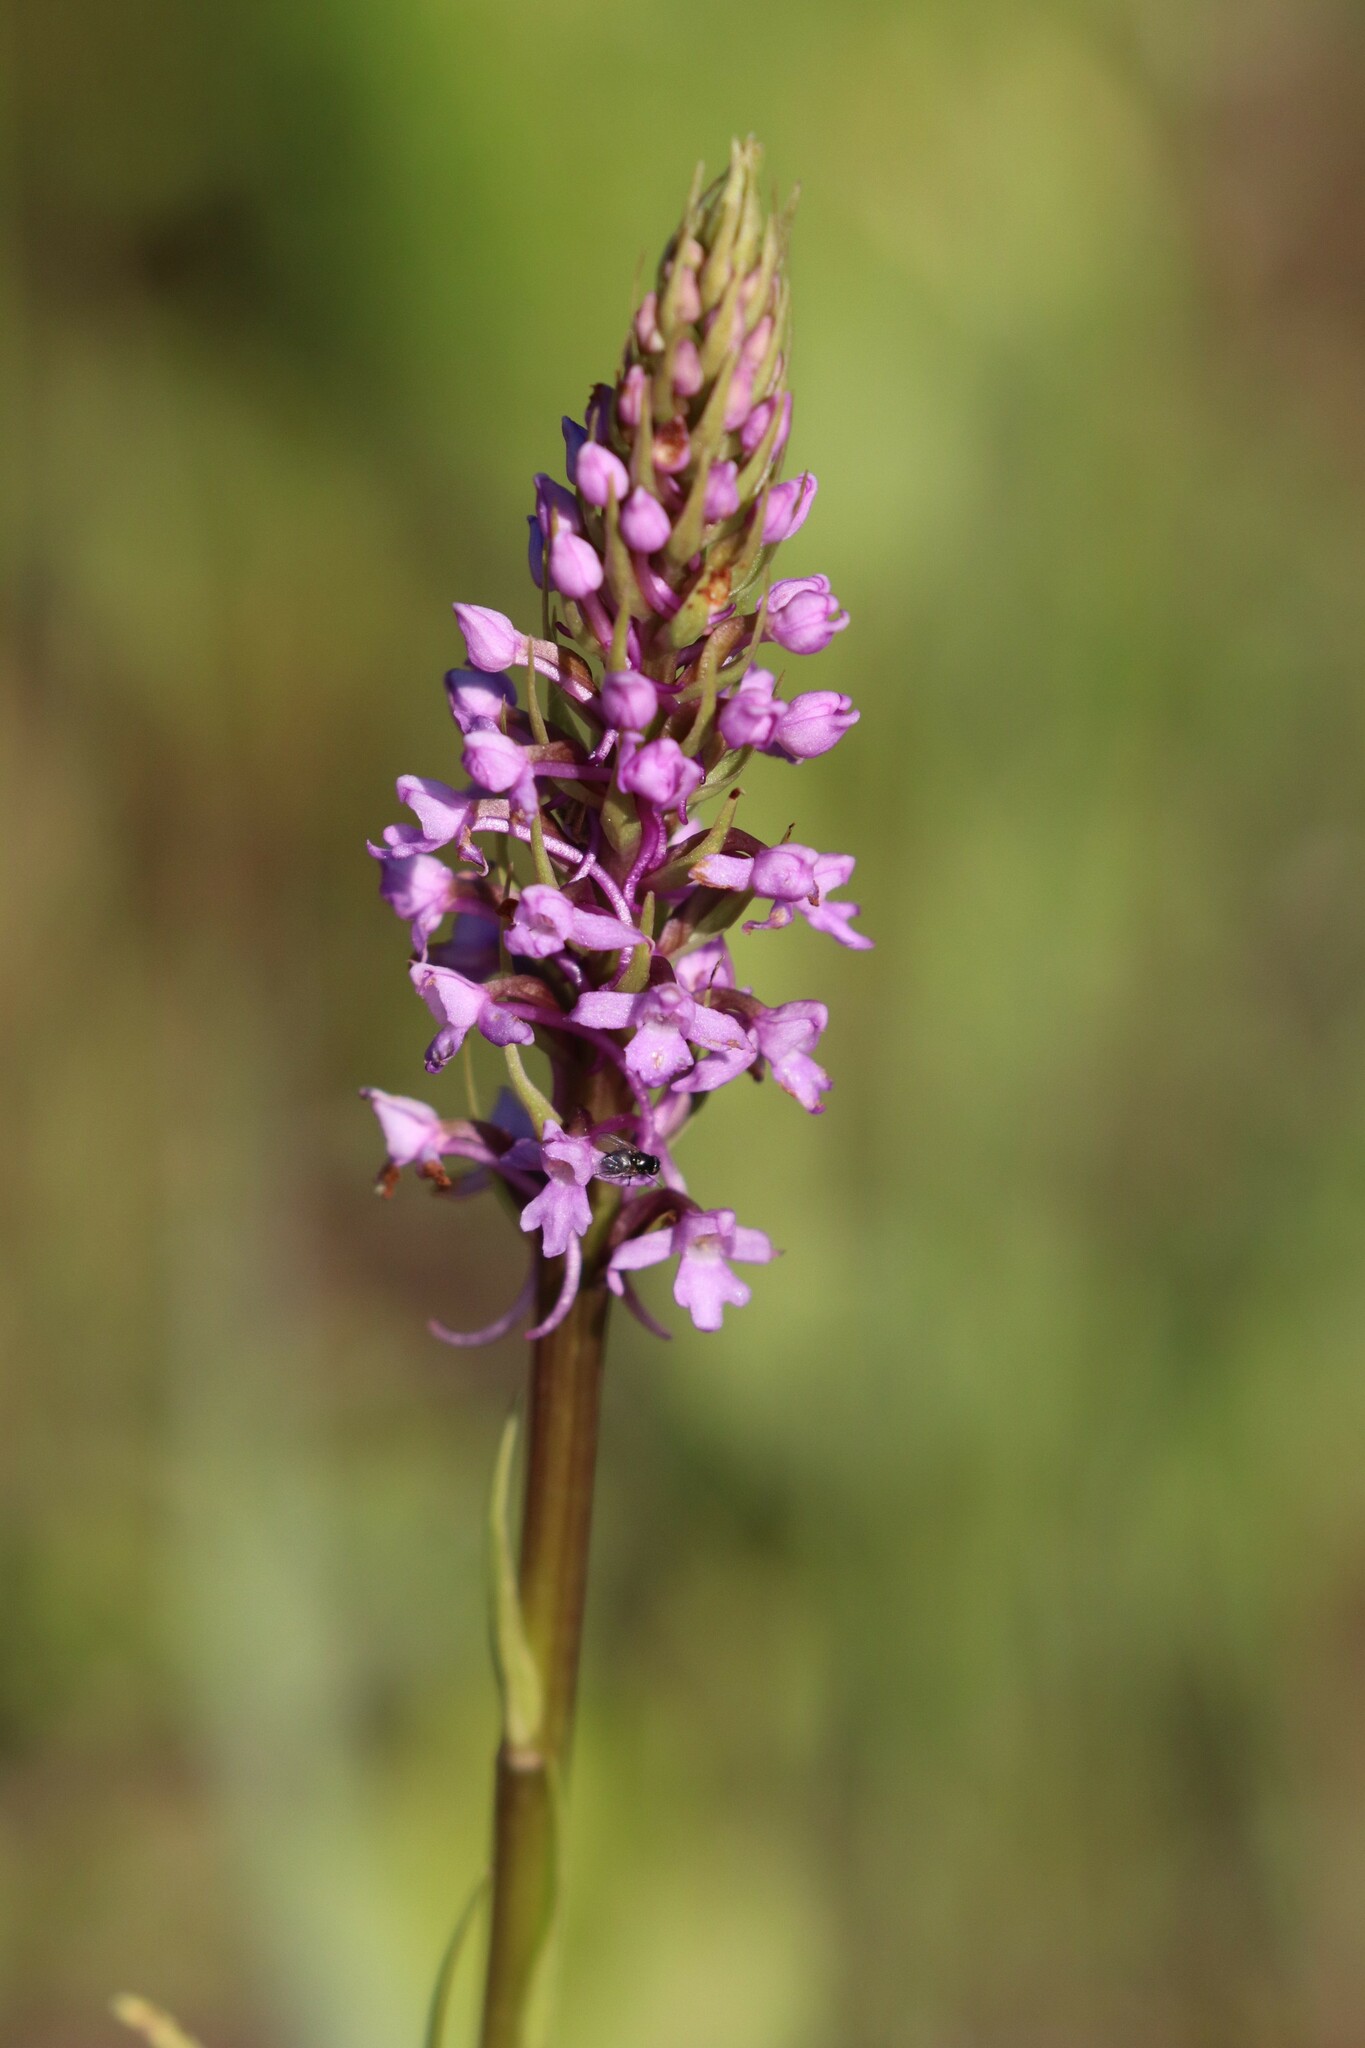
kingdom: Plantae
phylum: Tracheophyta
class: Liliopsida
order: Asparagales
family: Orchidaceae
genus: Gymnadenia
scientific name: Gymnadenia conopsea
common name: Fragrant orchid
